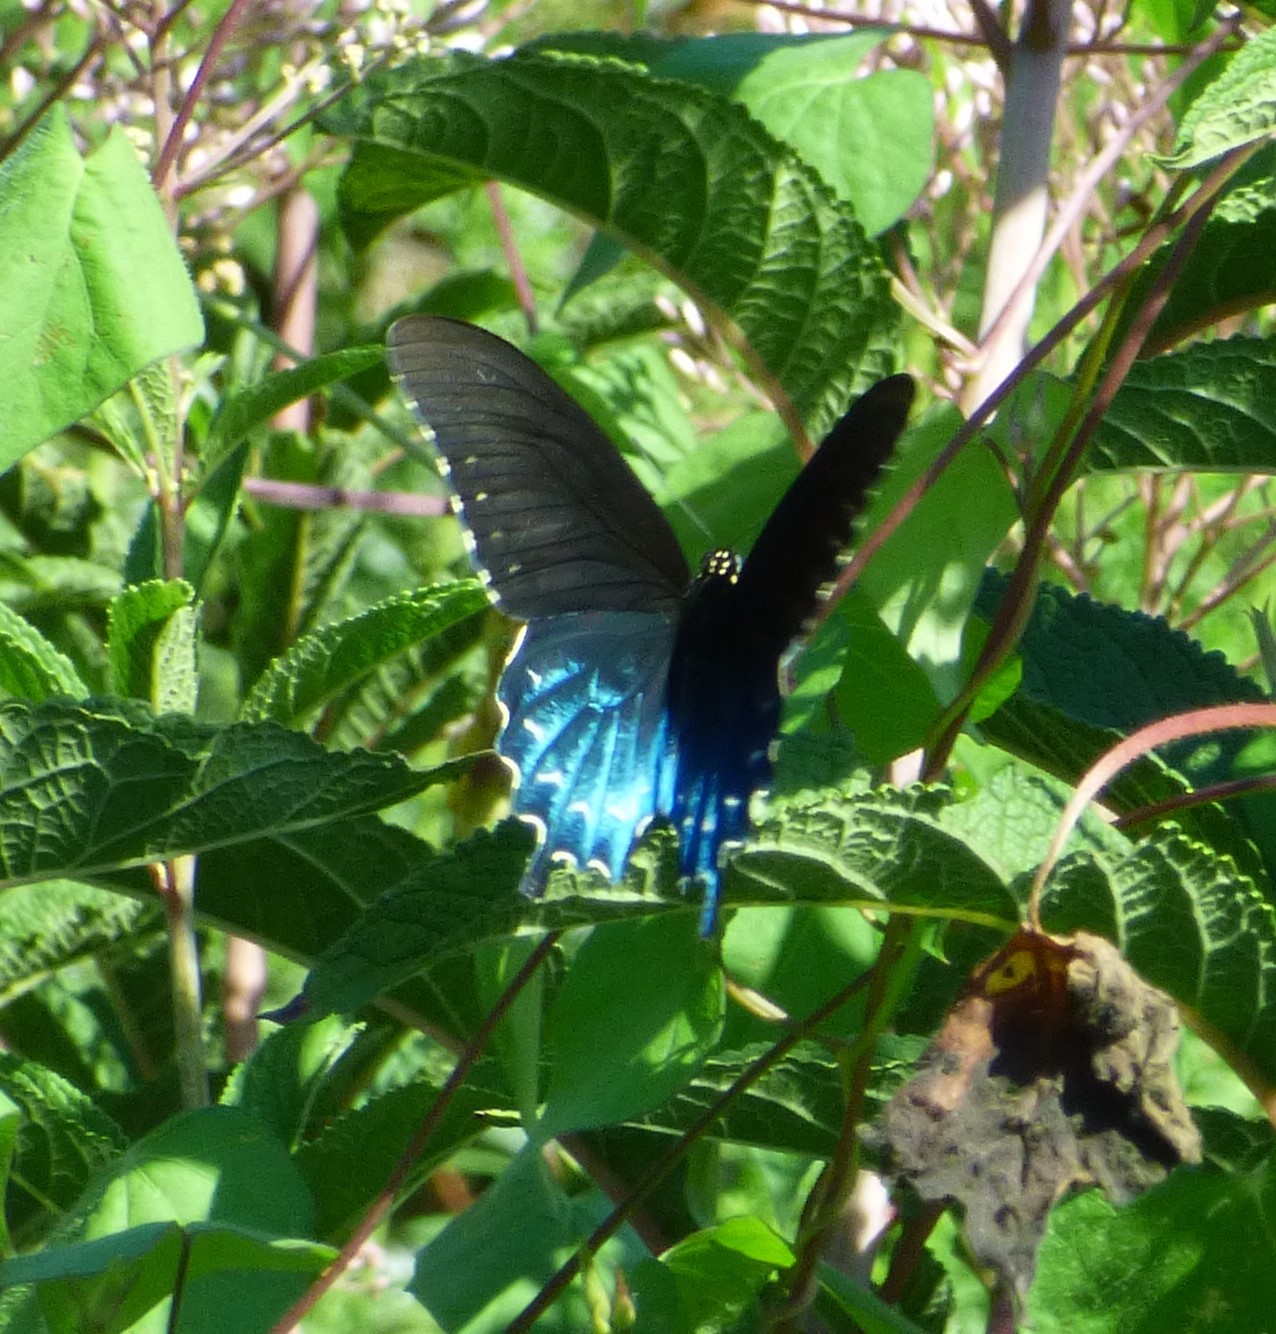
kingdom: Animalia
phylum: Arthropoda
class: Insecta
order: Lepidoptera
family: Papilionidae
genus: Battus
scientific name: Battus philenor
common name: Pipevine swallowtail
